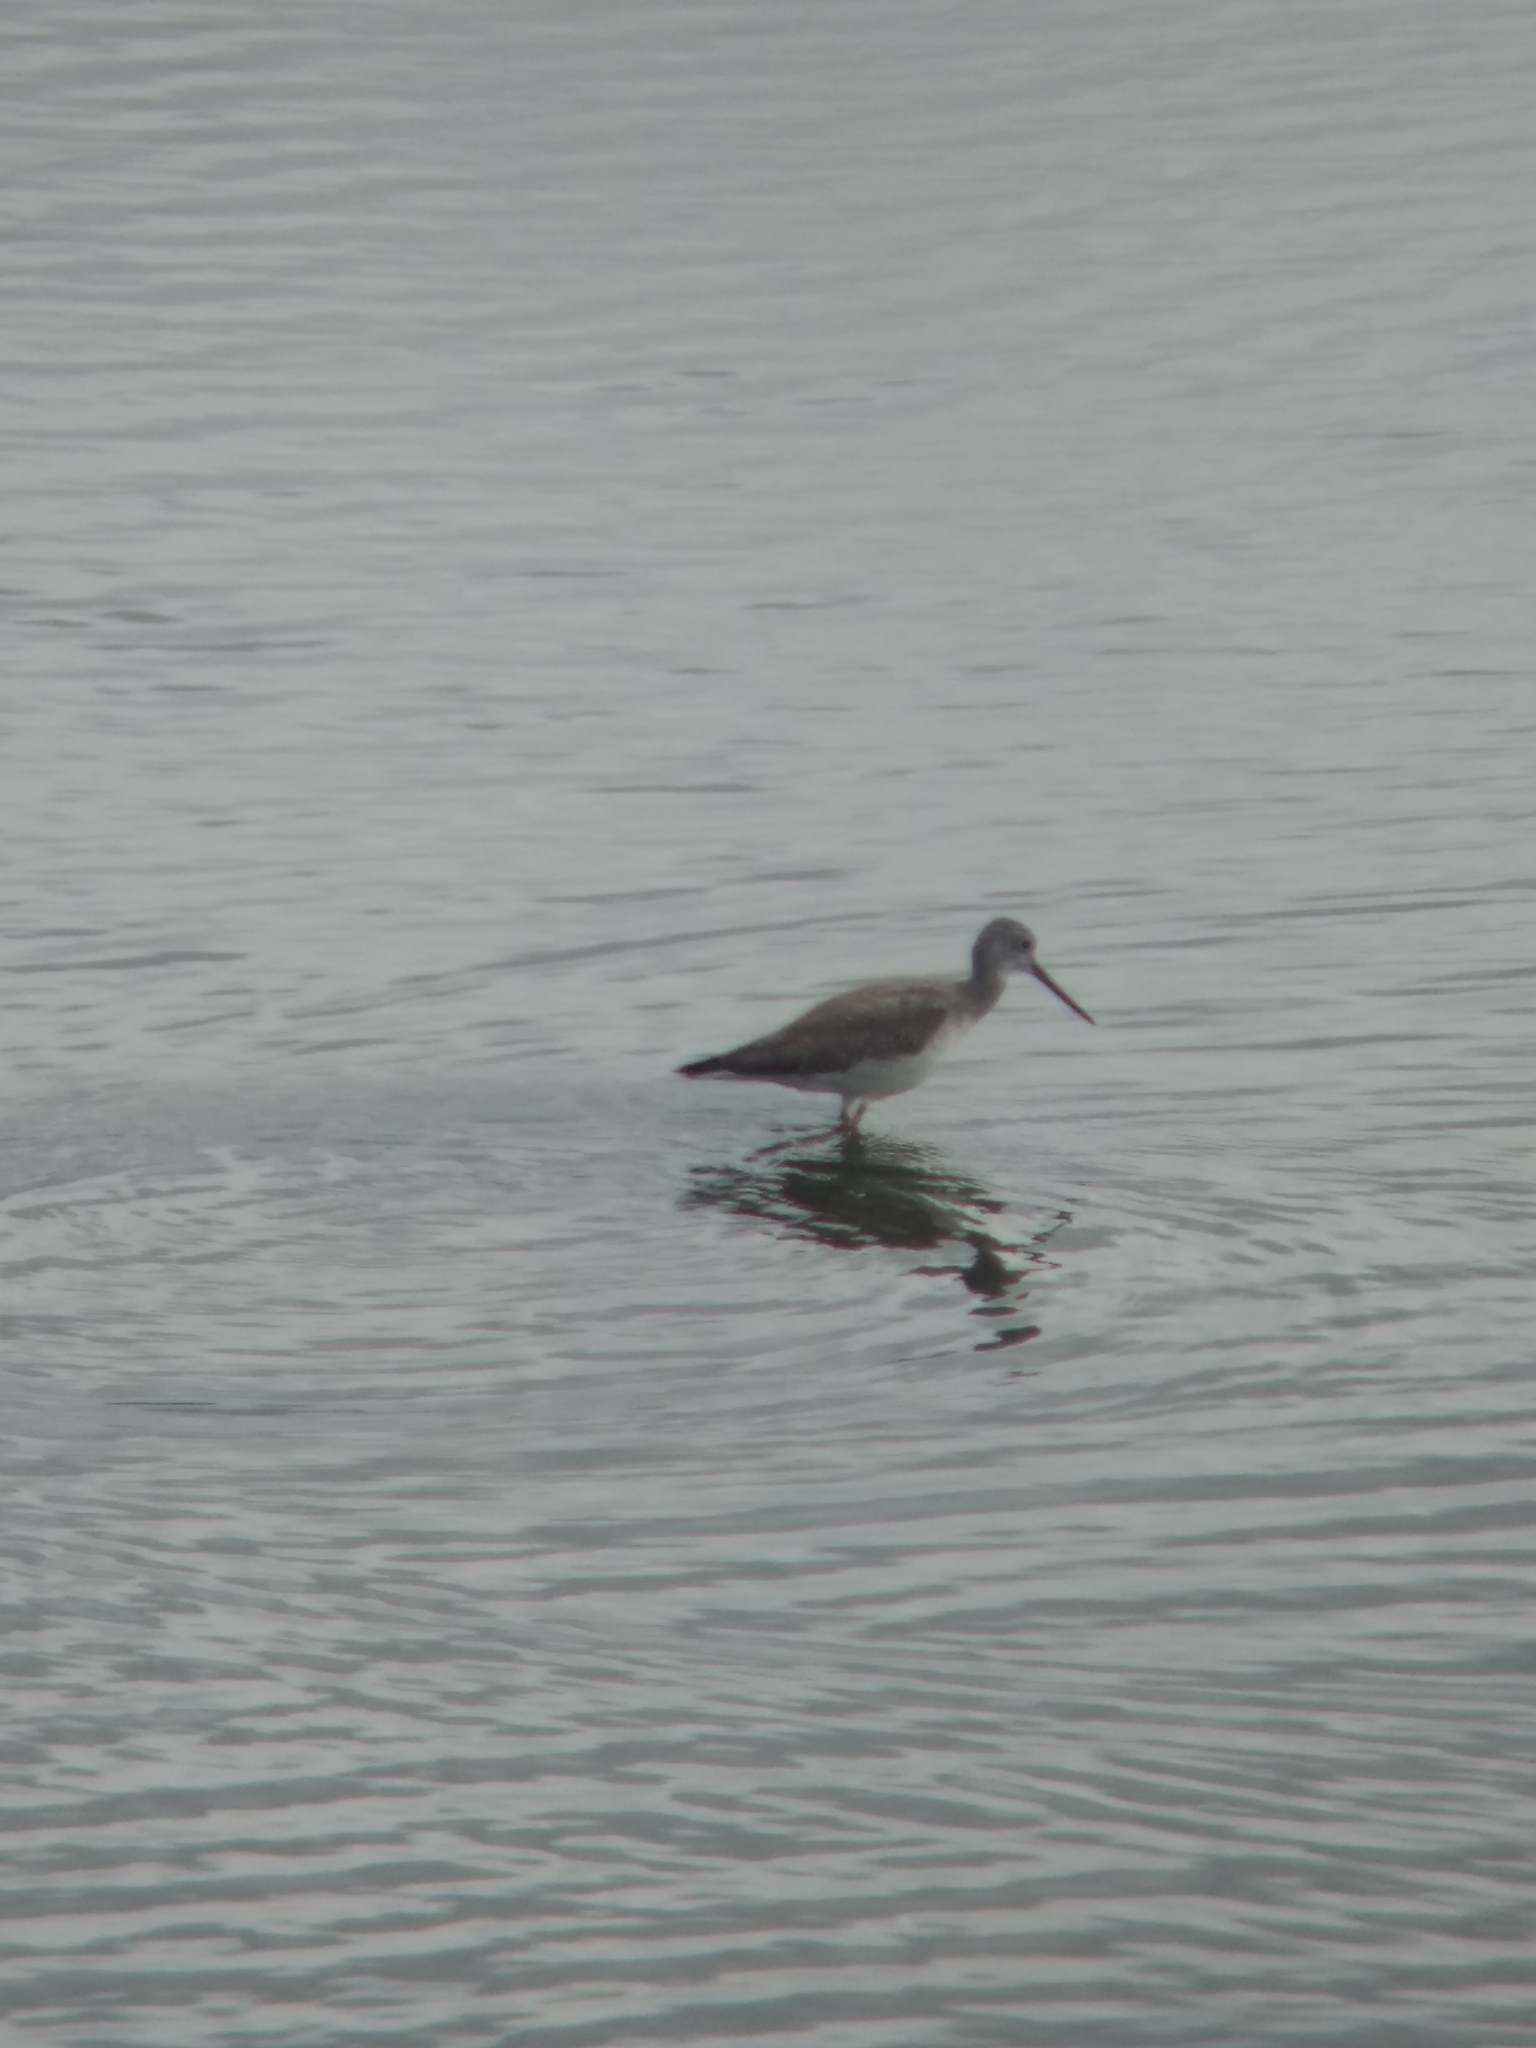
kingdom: Animalia
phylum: Chordata
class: Aves
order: Charadriiformes
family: Scolopacidae
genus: Tringa
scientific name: Tringa melanoleuca
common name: Greater yellowlegs
